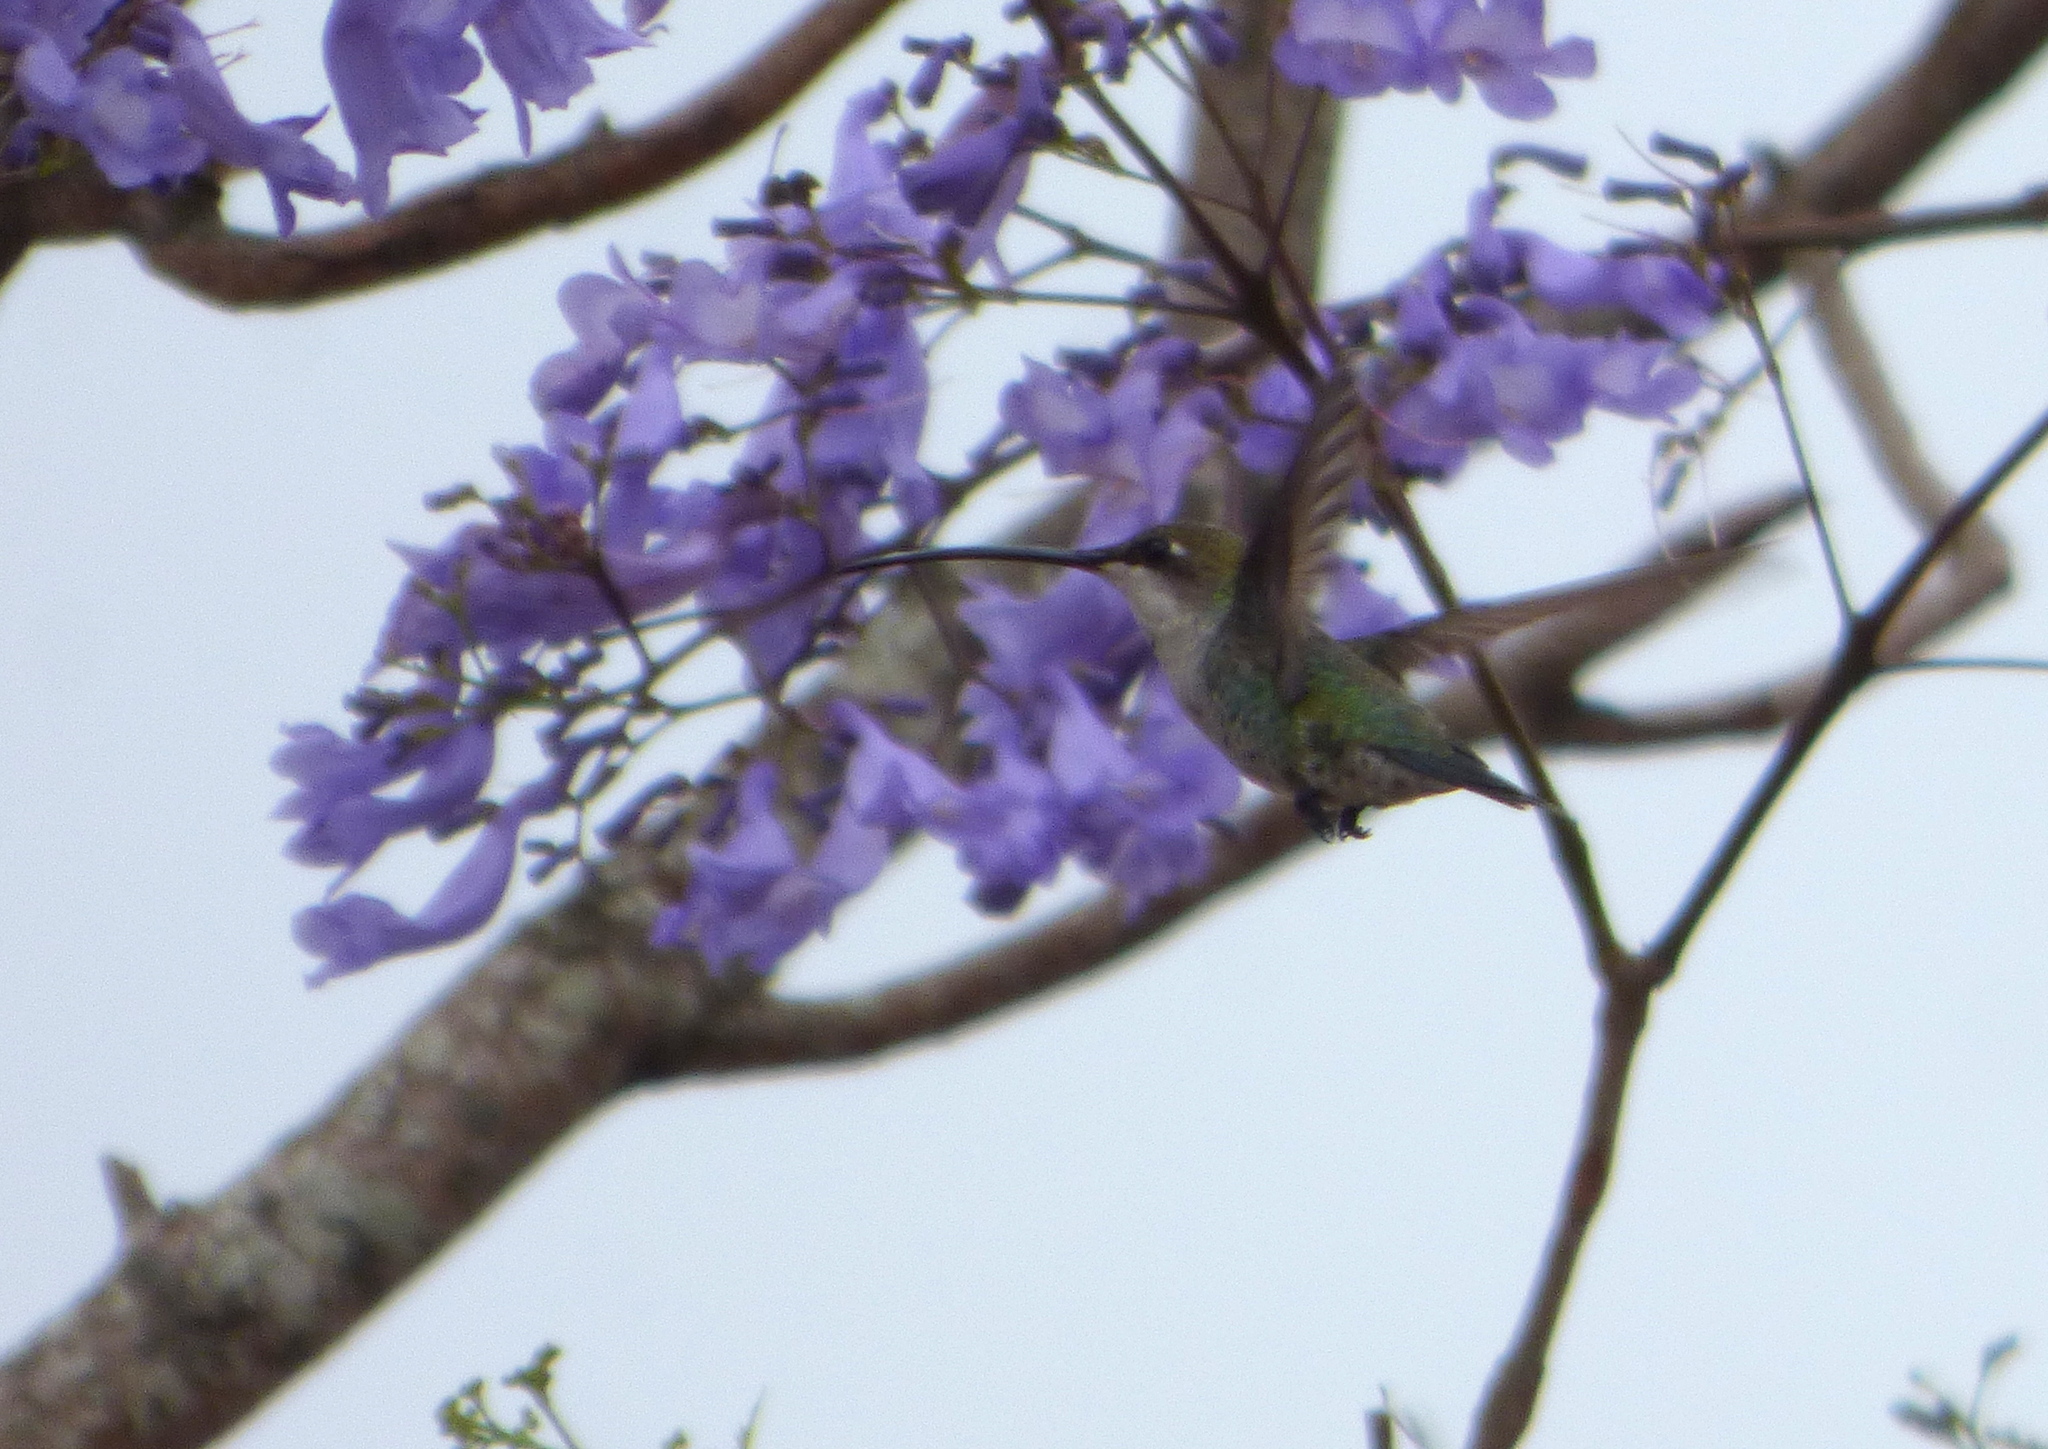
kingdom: Animalia
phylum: Chordata
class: Aves
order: Apodiformes
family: Trochilidae
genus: Heliomaster
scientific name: Heliomaster furcifer
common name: Blue-tufted starthroat
